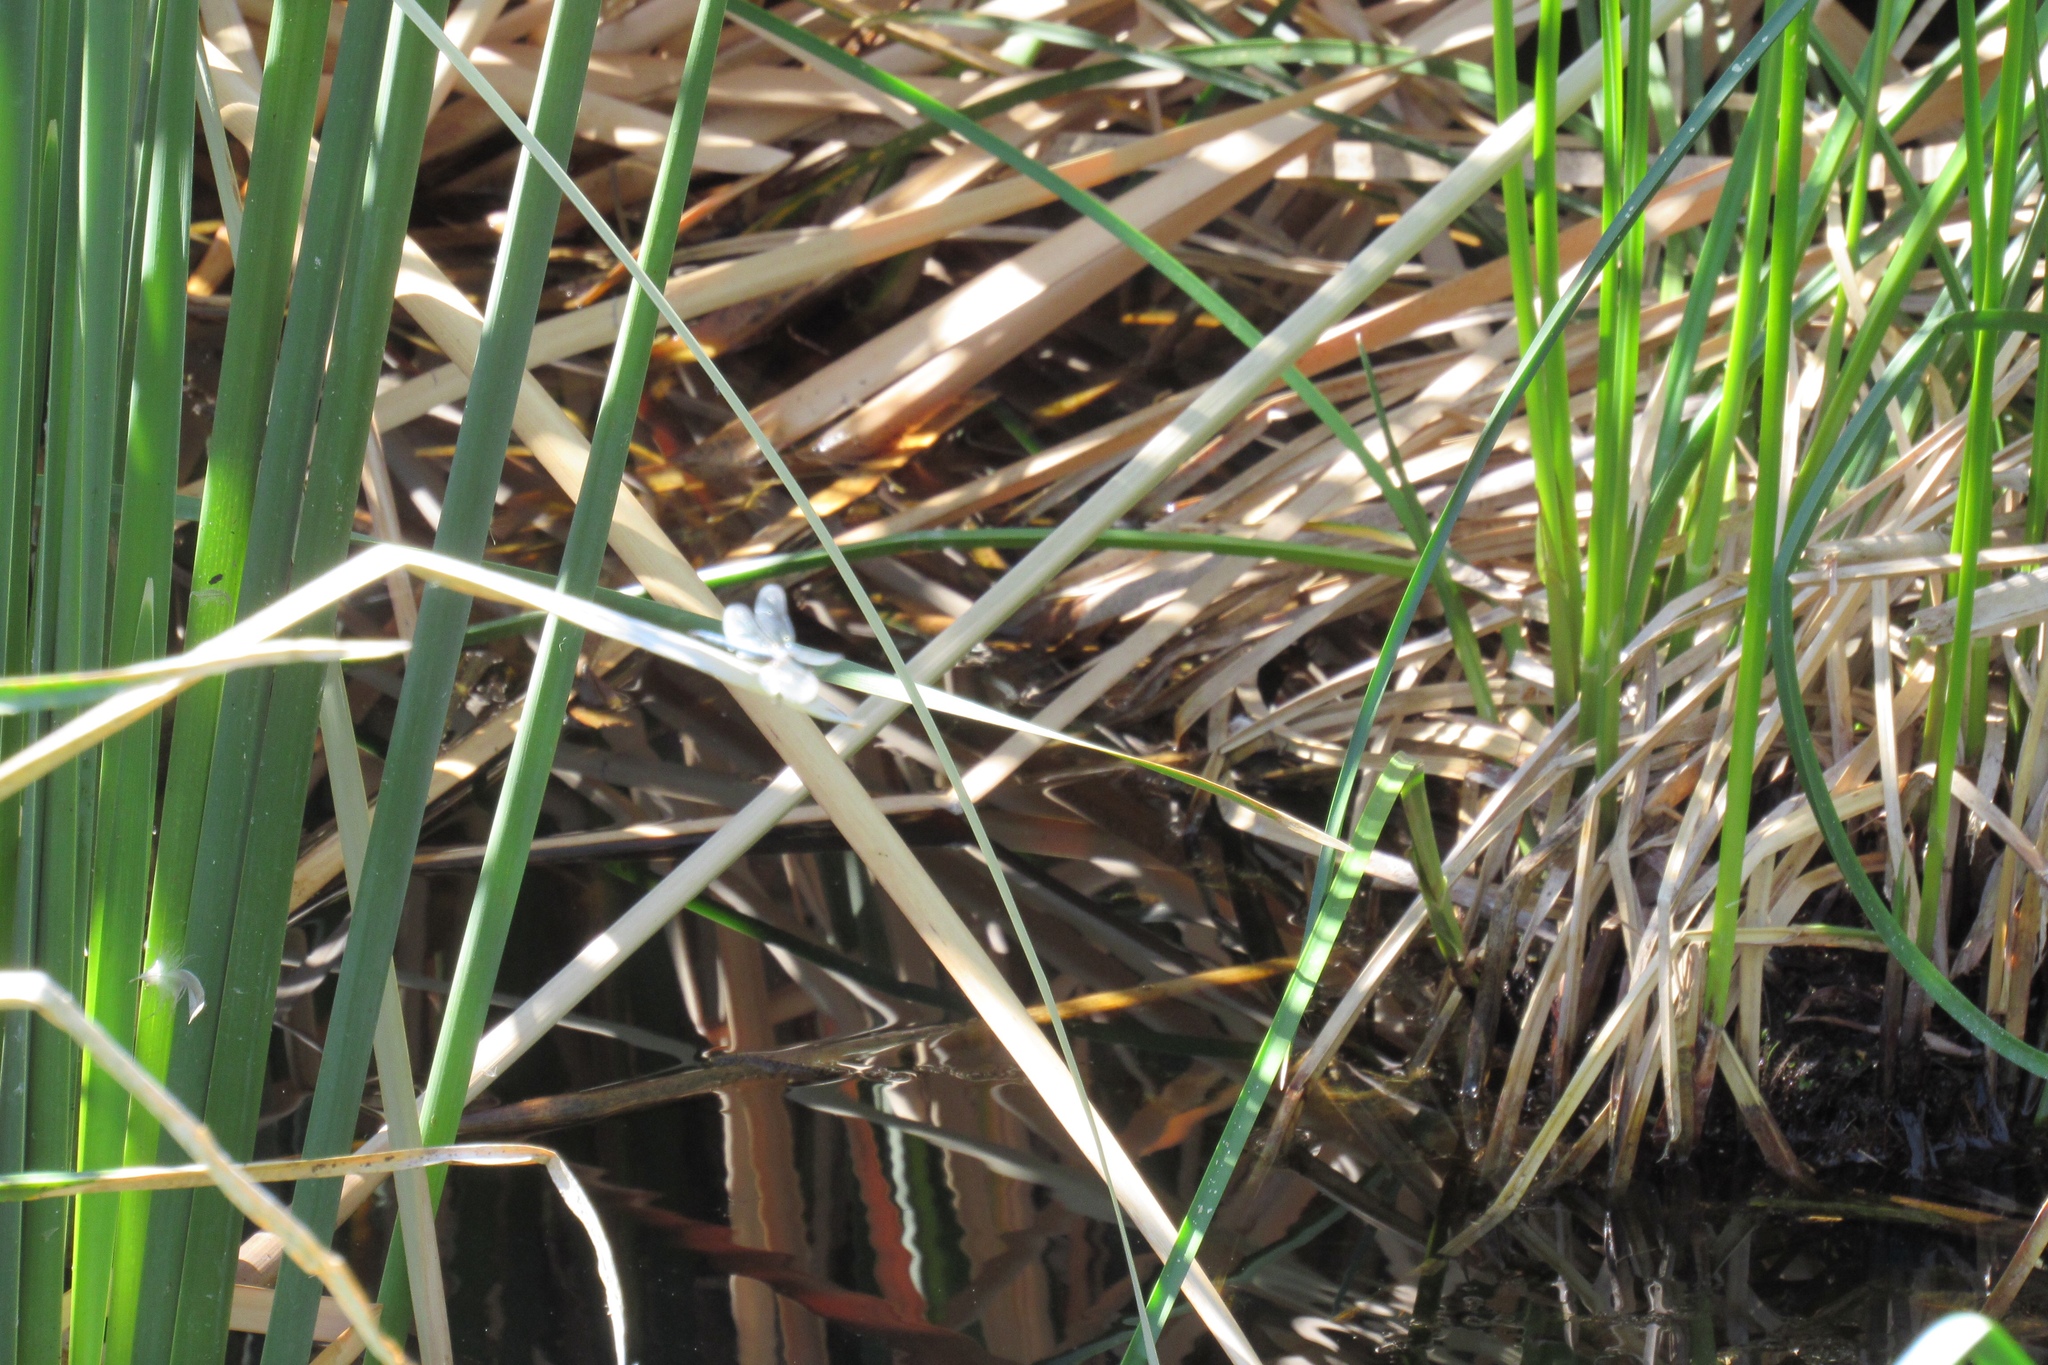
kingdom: Animalia
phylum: Arthropoda
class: Insecta
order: Odonata
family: Libellulidae
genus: Pachydiplax
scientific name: Pachydiplax longipennis
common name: Blue dasher
